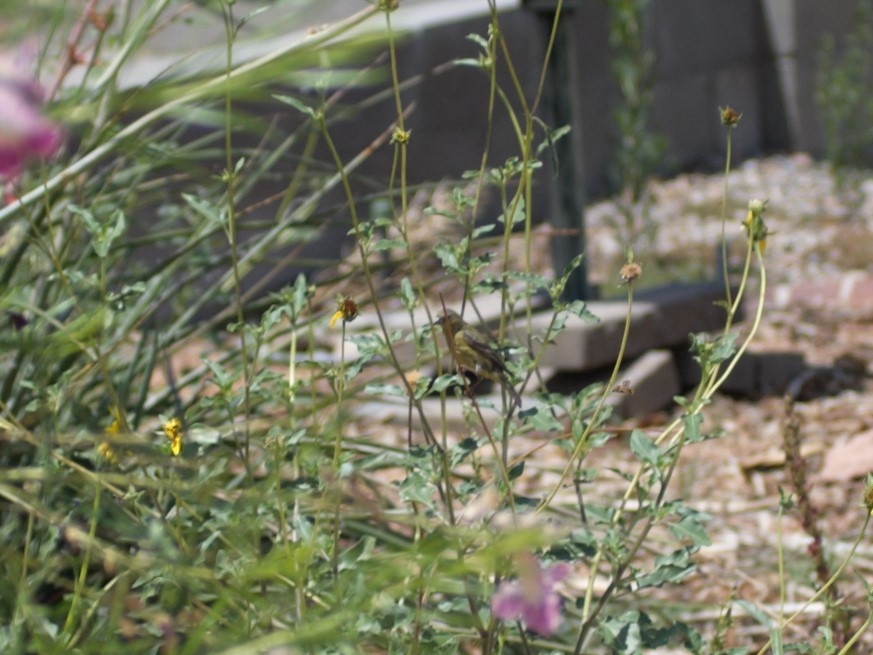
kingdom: Animalia
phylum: Chordata
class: Aves
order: Passeriformes
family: Fringillidae
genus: Spinus
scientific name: Spinus psaltria
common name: Lesser goldfinch
